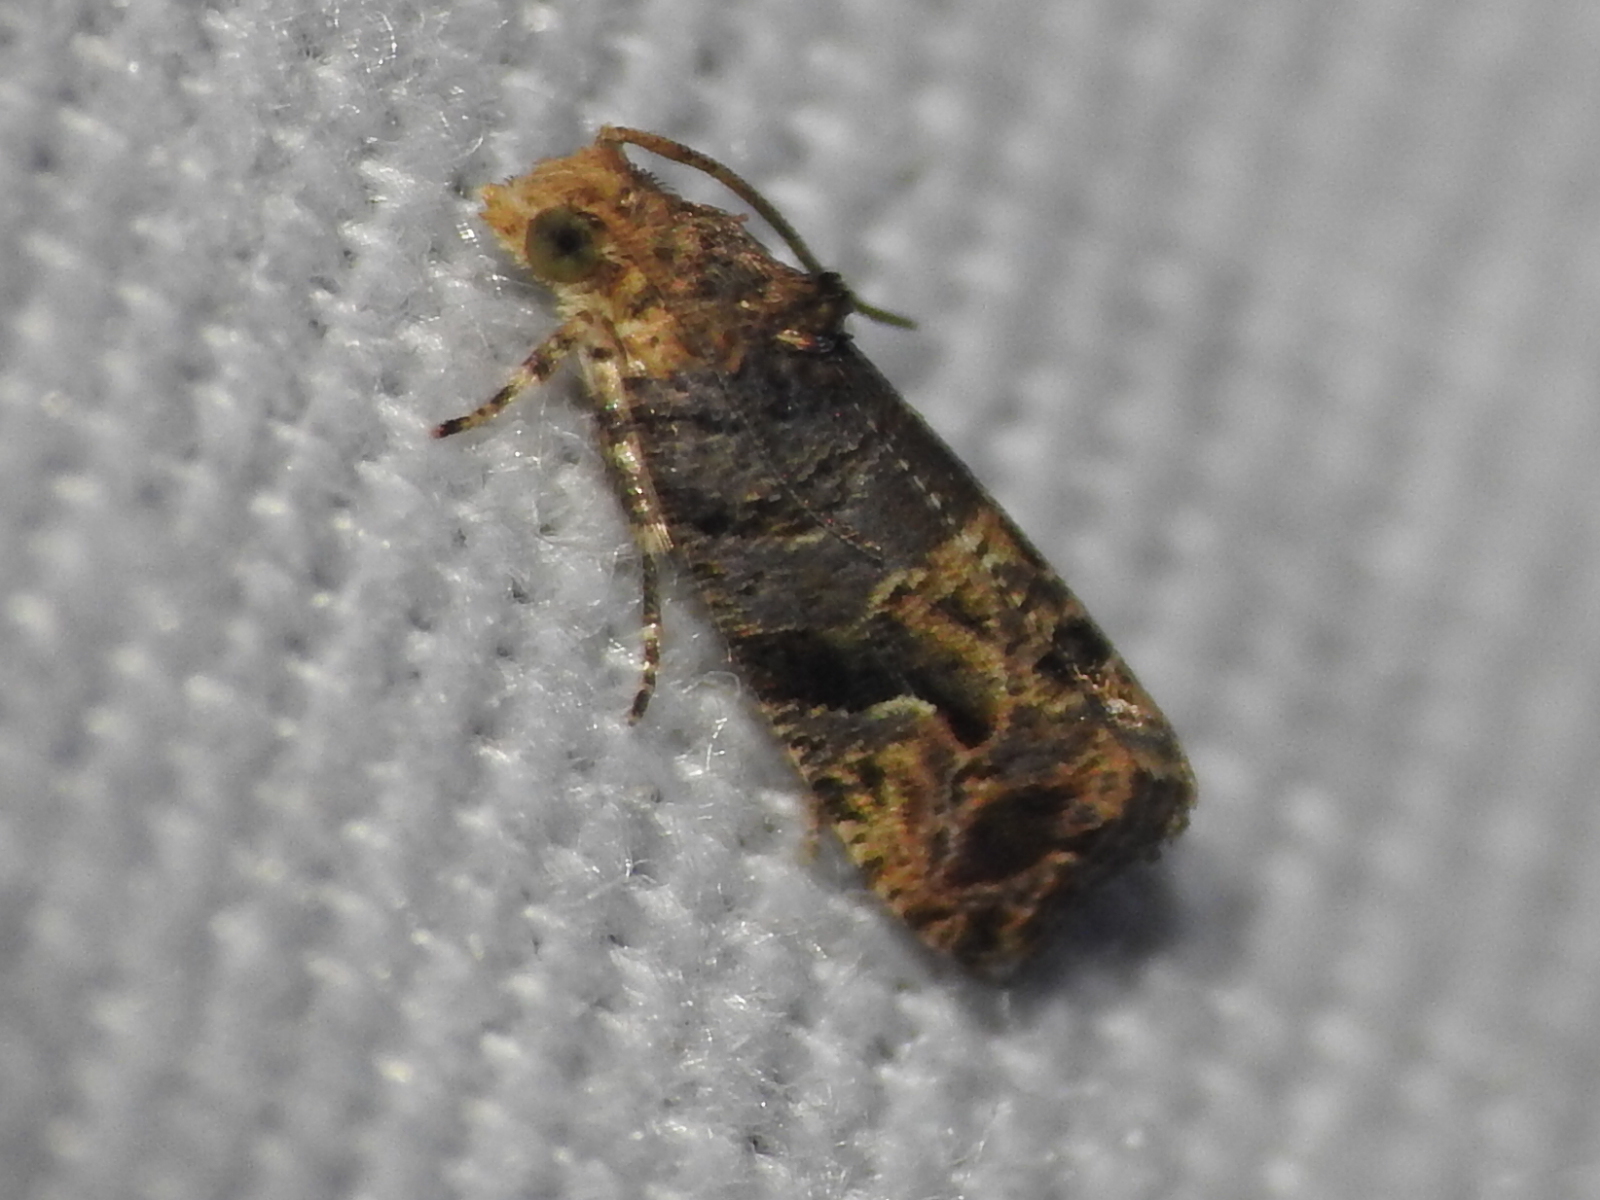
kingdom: Animalia
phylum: Arthropoda
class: Insecta
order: Lepidoptera
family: Tortricidae
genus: Paralobesia
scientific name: Paralobesia viteana
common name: Grape berry moth
